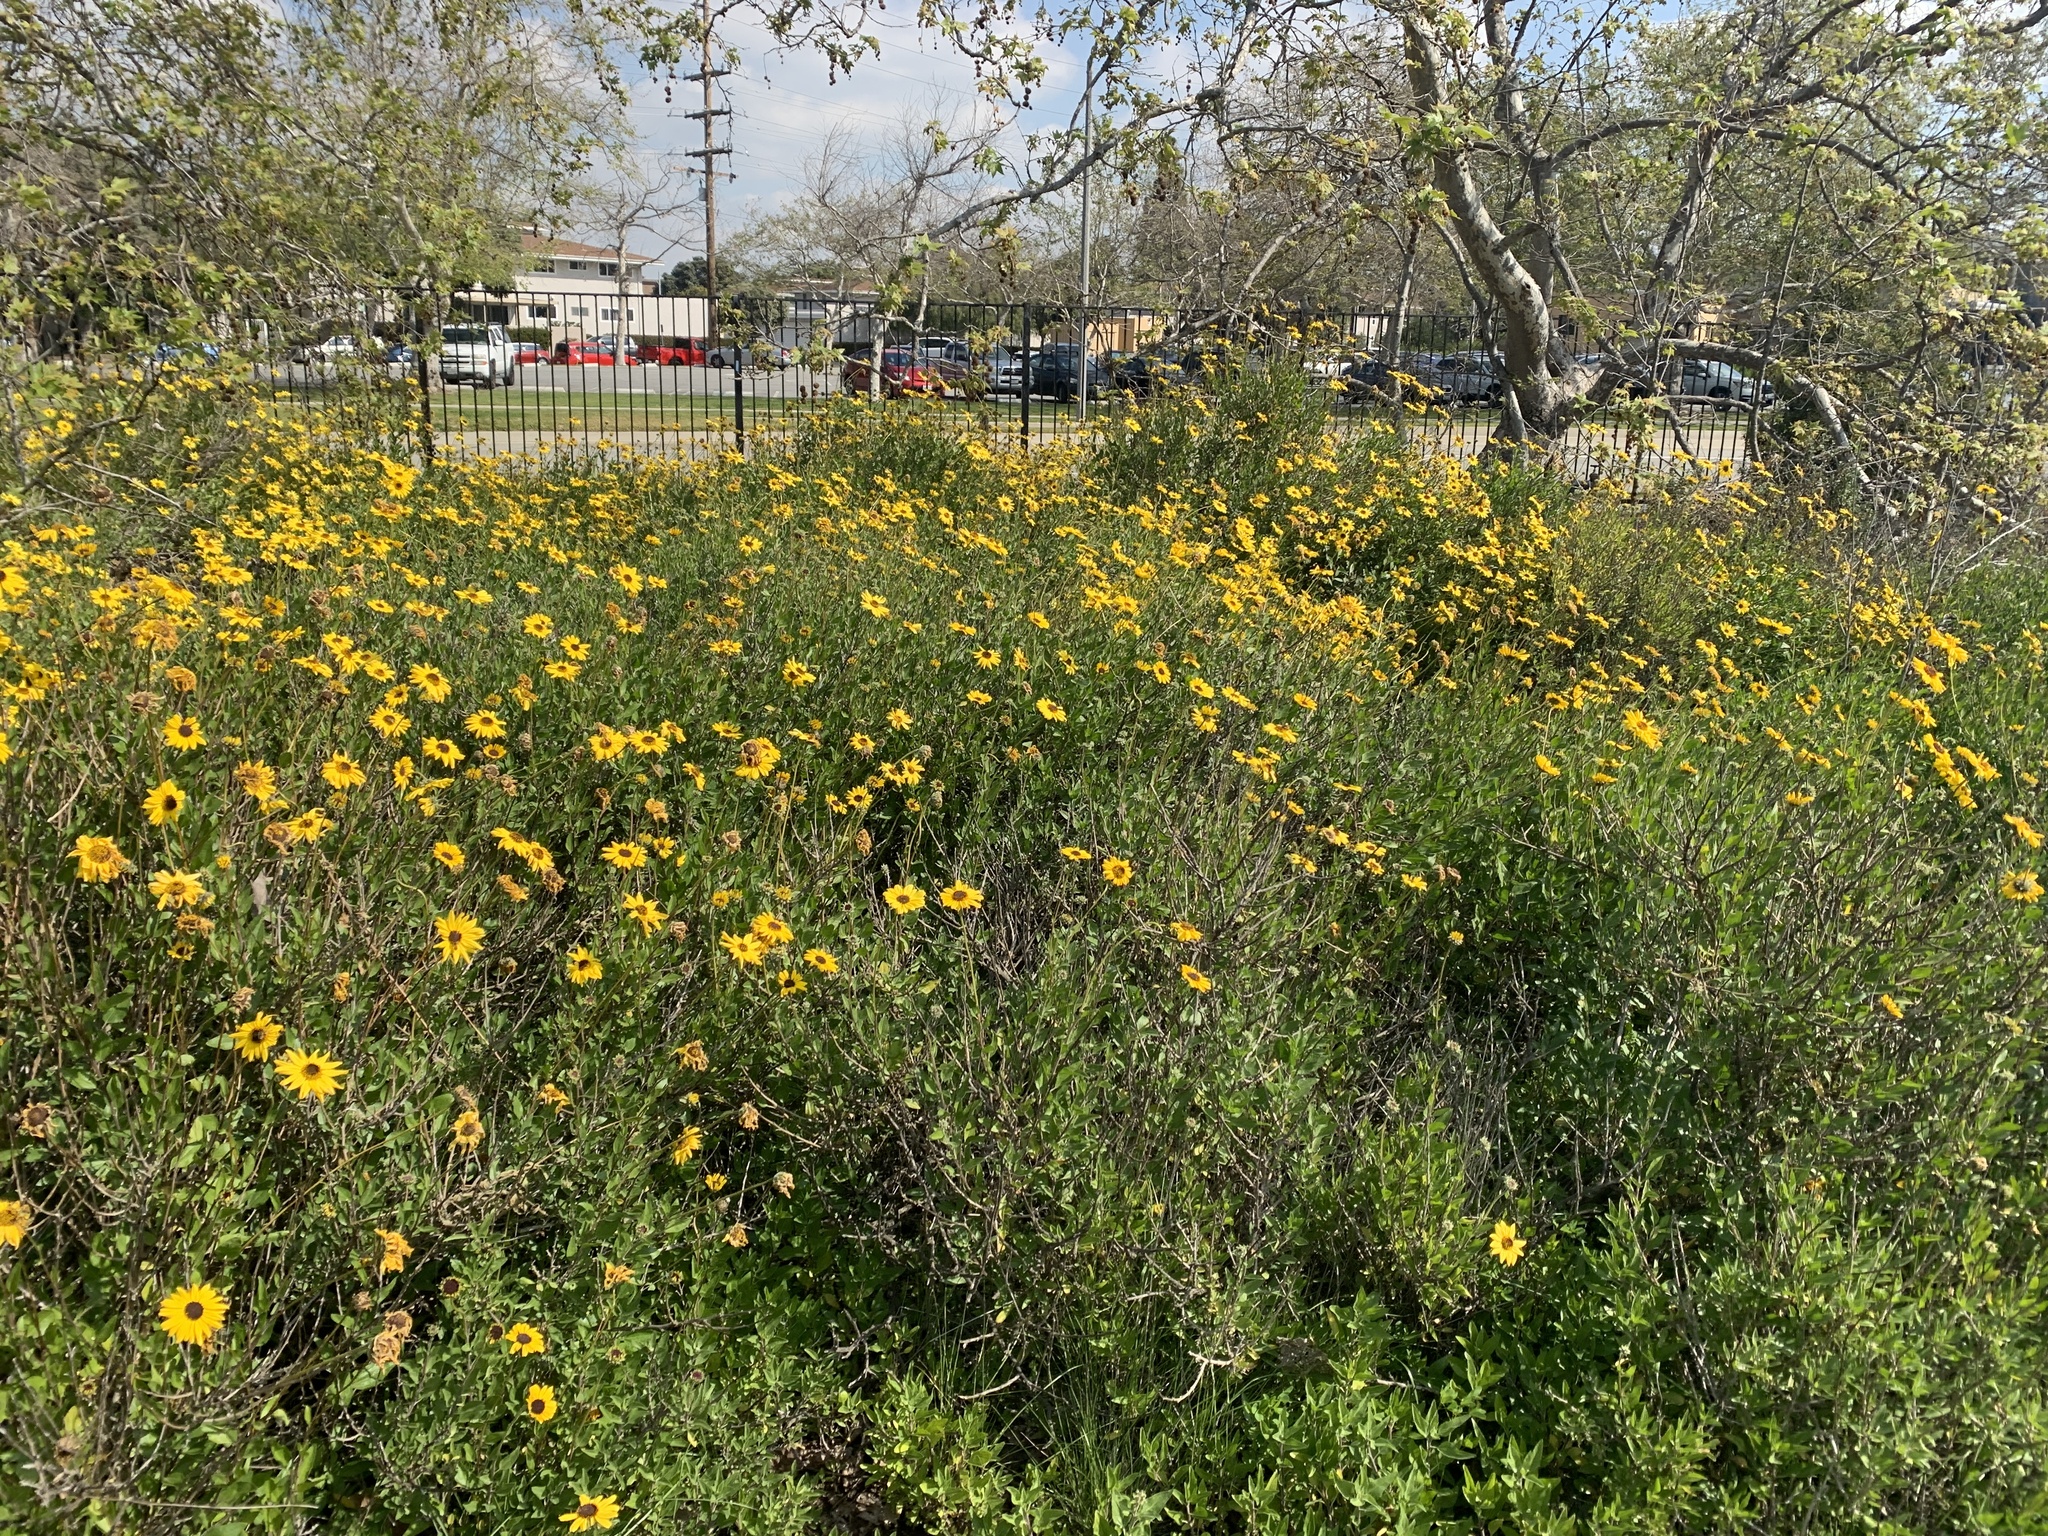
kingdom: Plantae
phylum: Tracheophyta
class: Magnoliopsida
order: Asterales
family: Asteraceae
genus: Encelia
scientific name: Encelia californica
